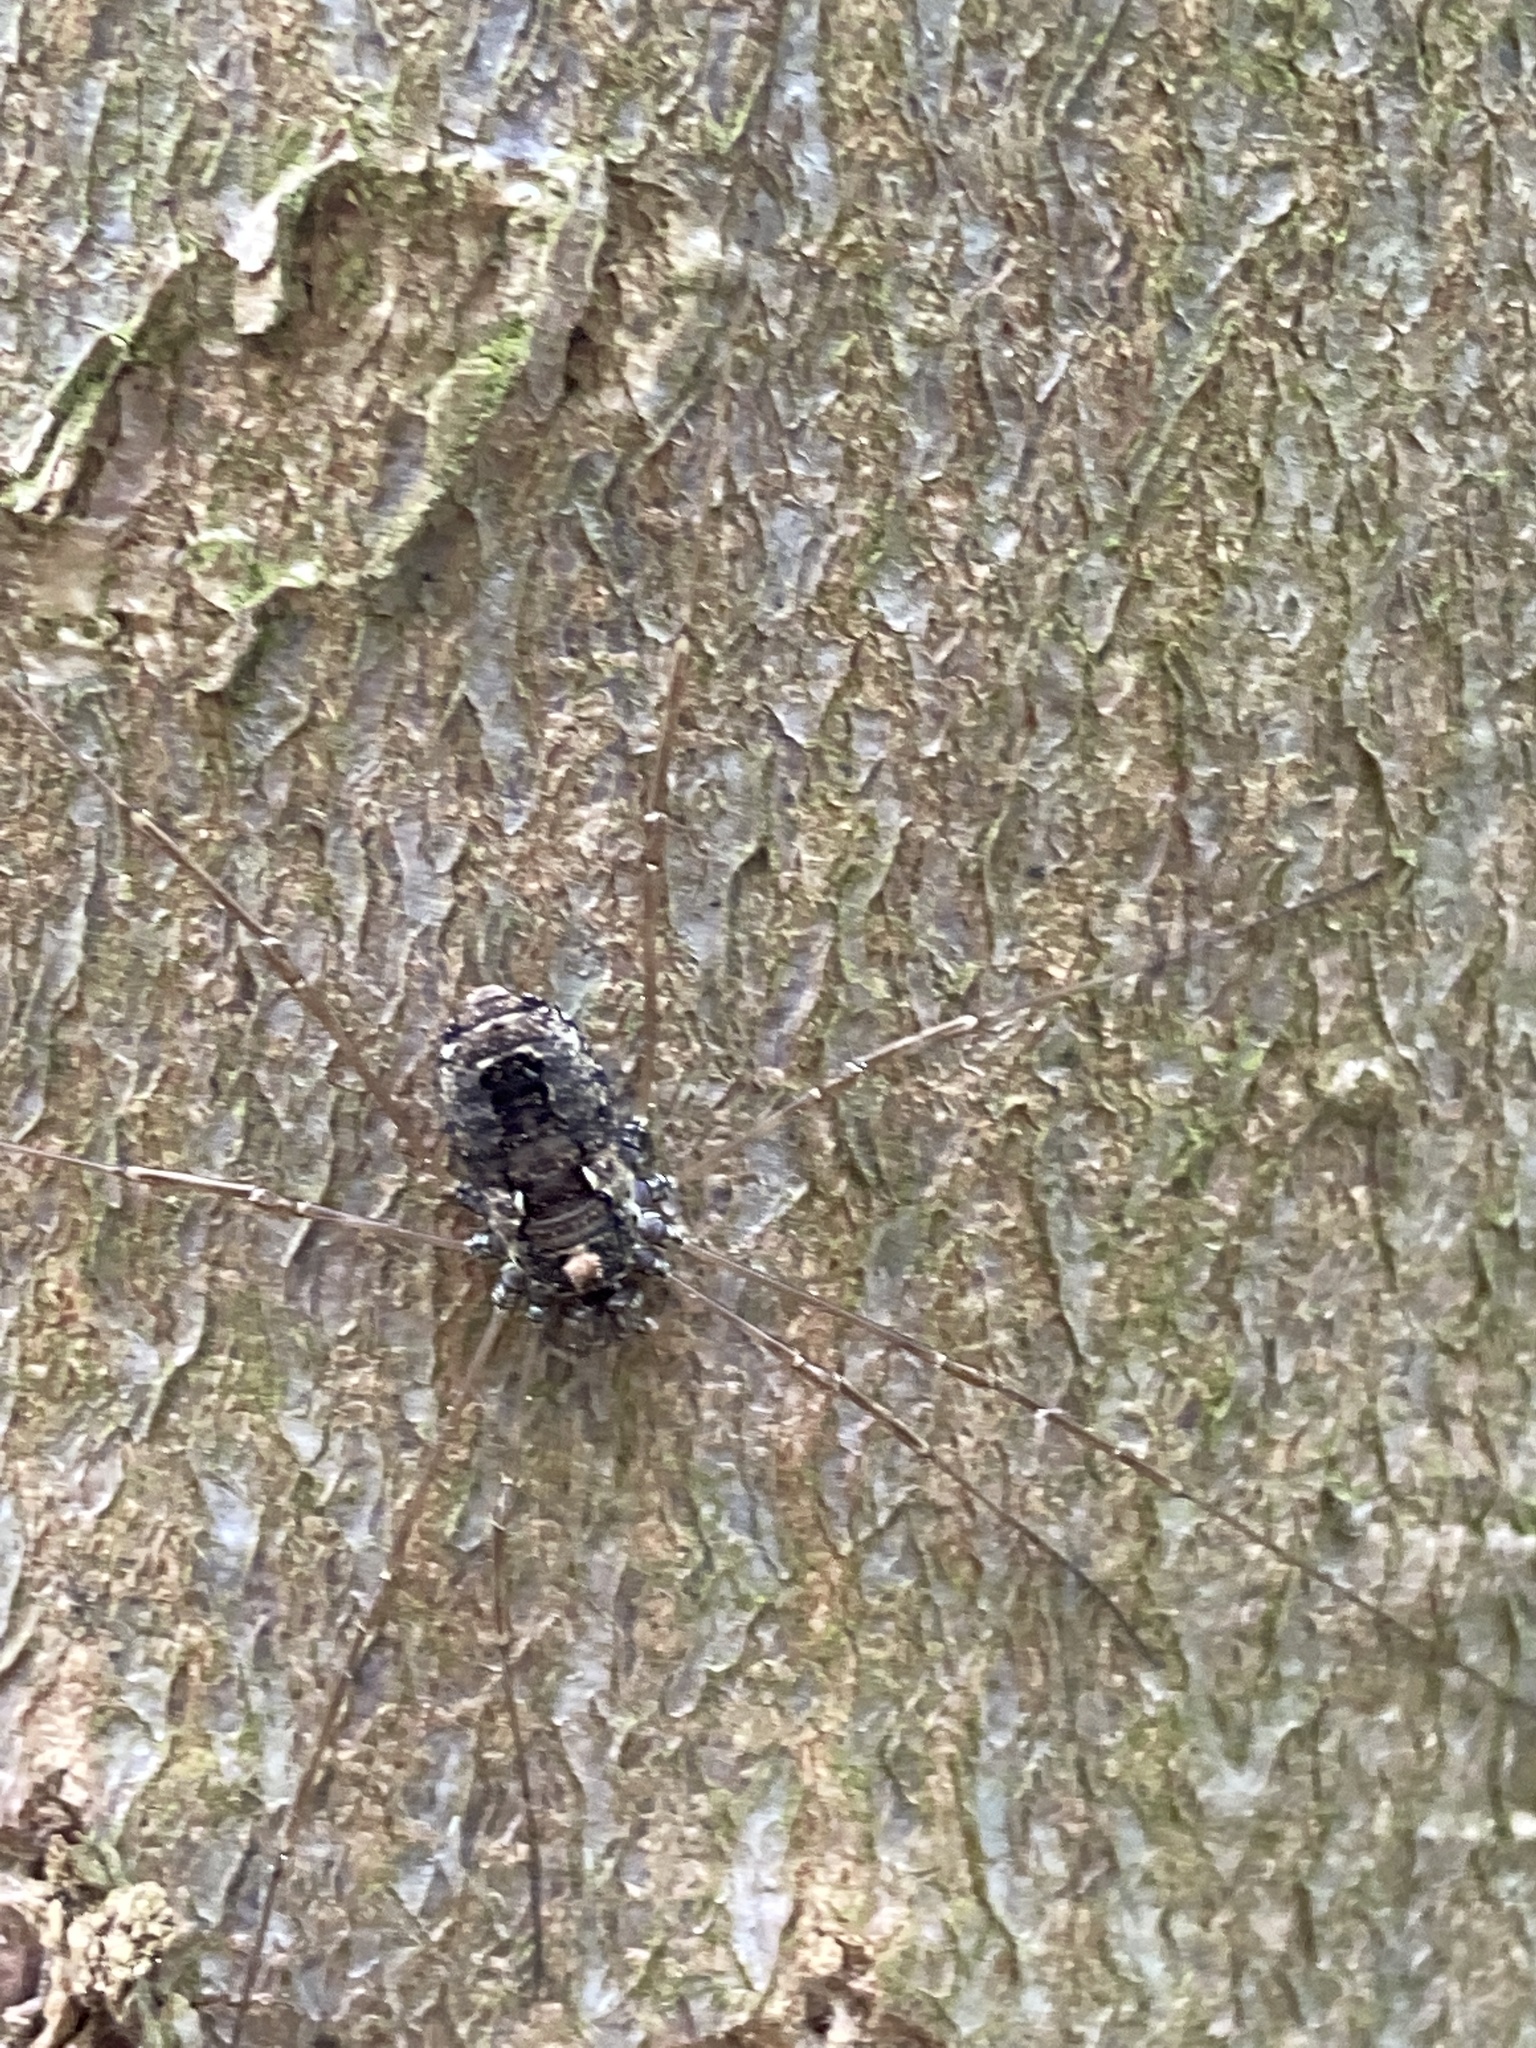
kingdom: Animalia
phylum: Arthropoda
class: Arachnida
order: Opiliones
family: Phalangiidae
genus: Platybunus
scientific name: Platybunus pinetorum
